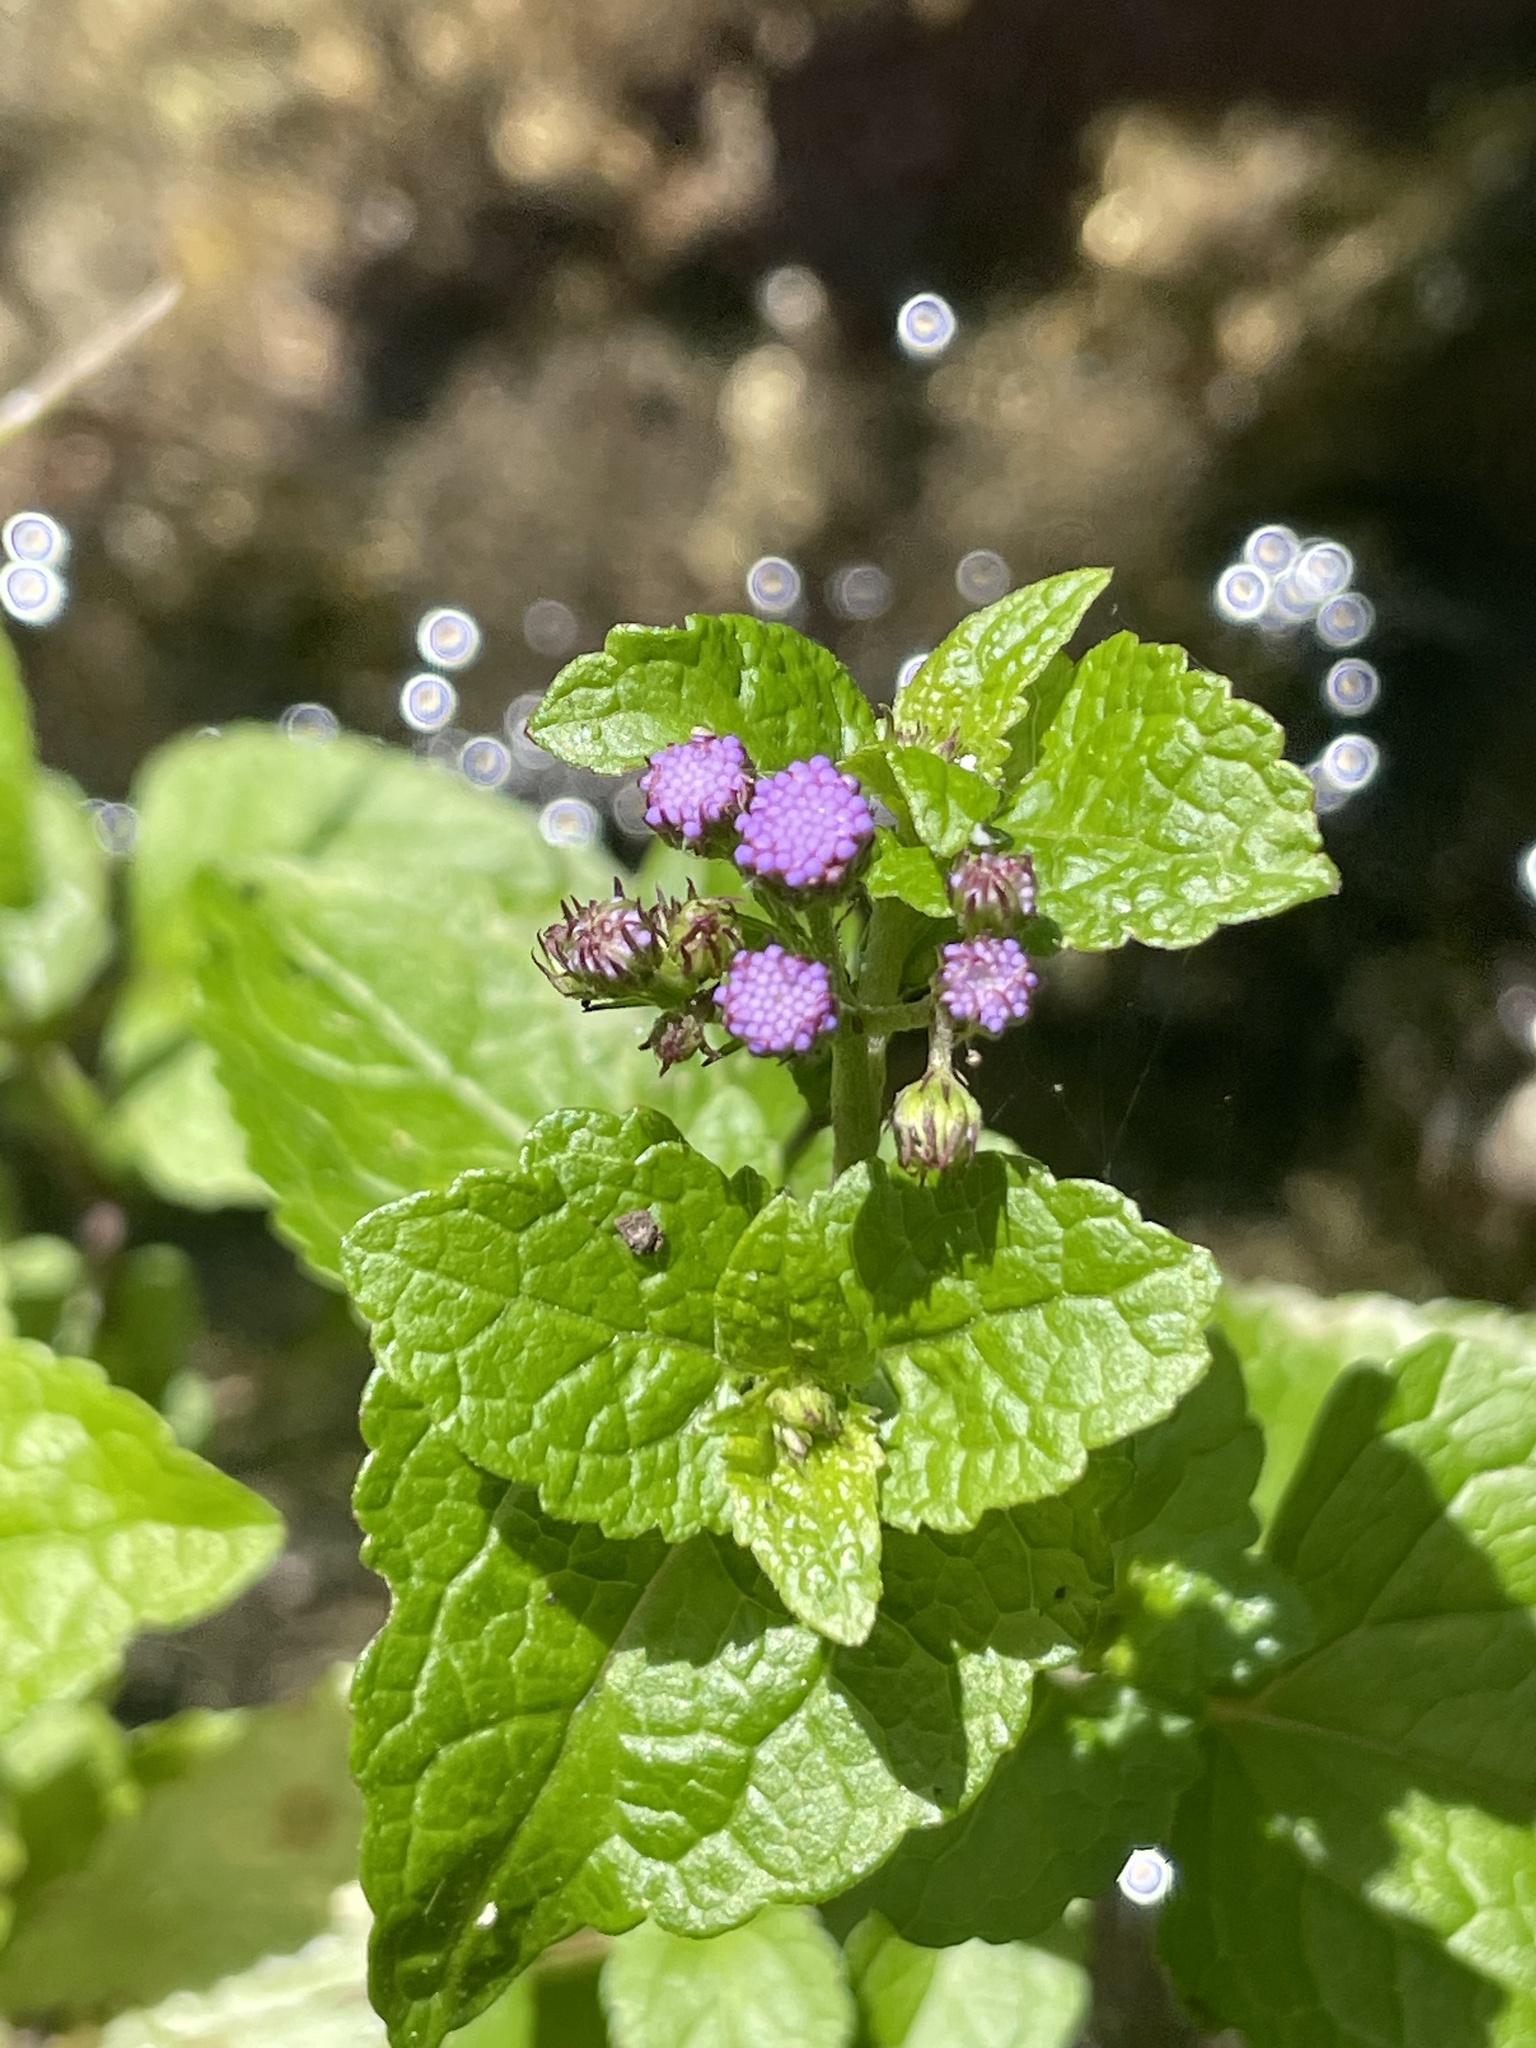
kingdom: Plantae
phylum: Tracheophyta
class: Magnoliopsida
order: Asterales
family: Asteraceae
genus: Conoclinium
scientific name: Conoclinium coelestinum
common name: Blue mistflower
